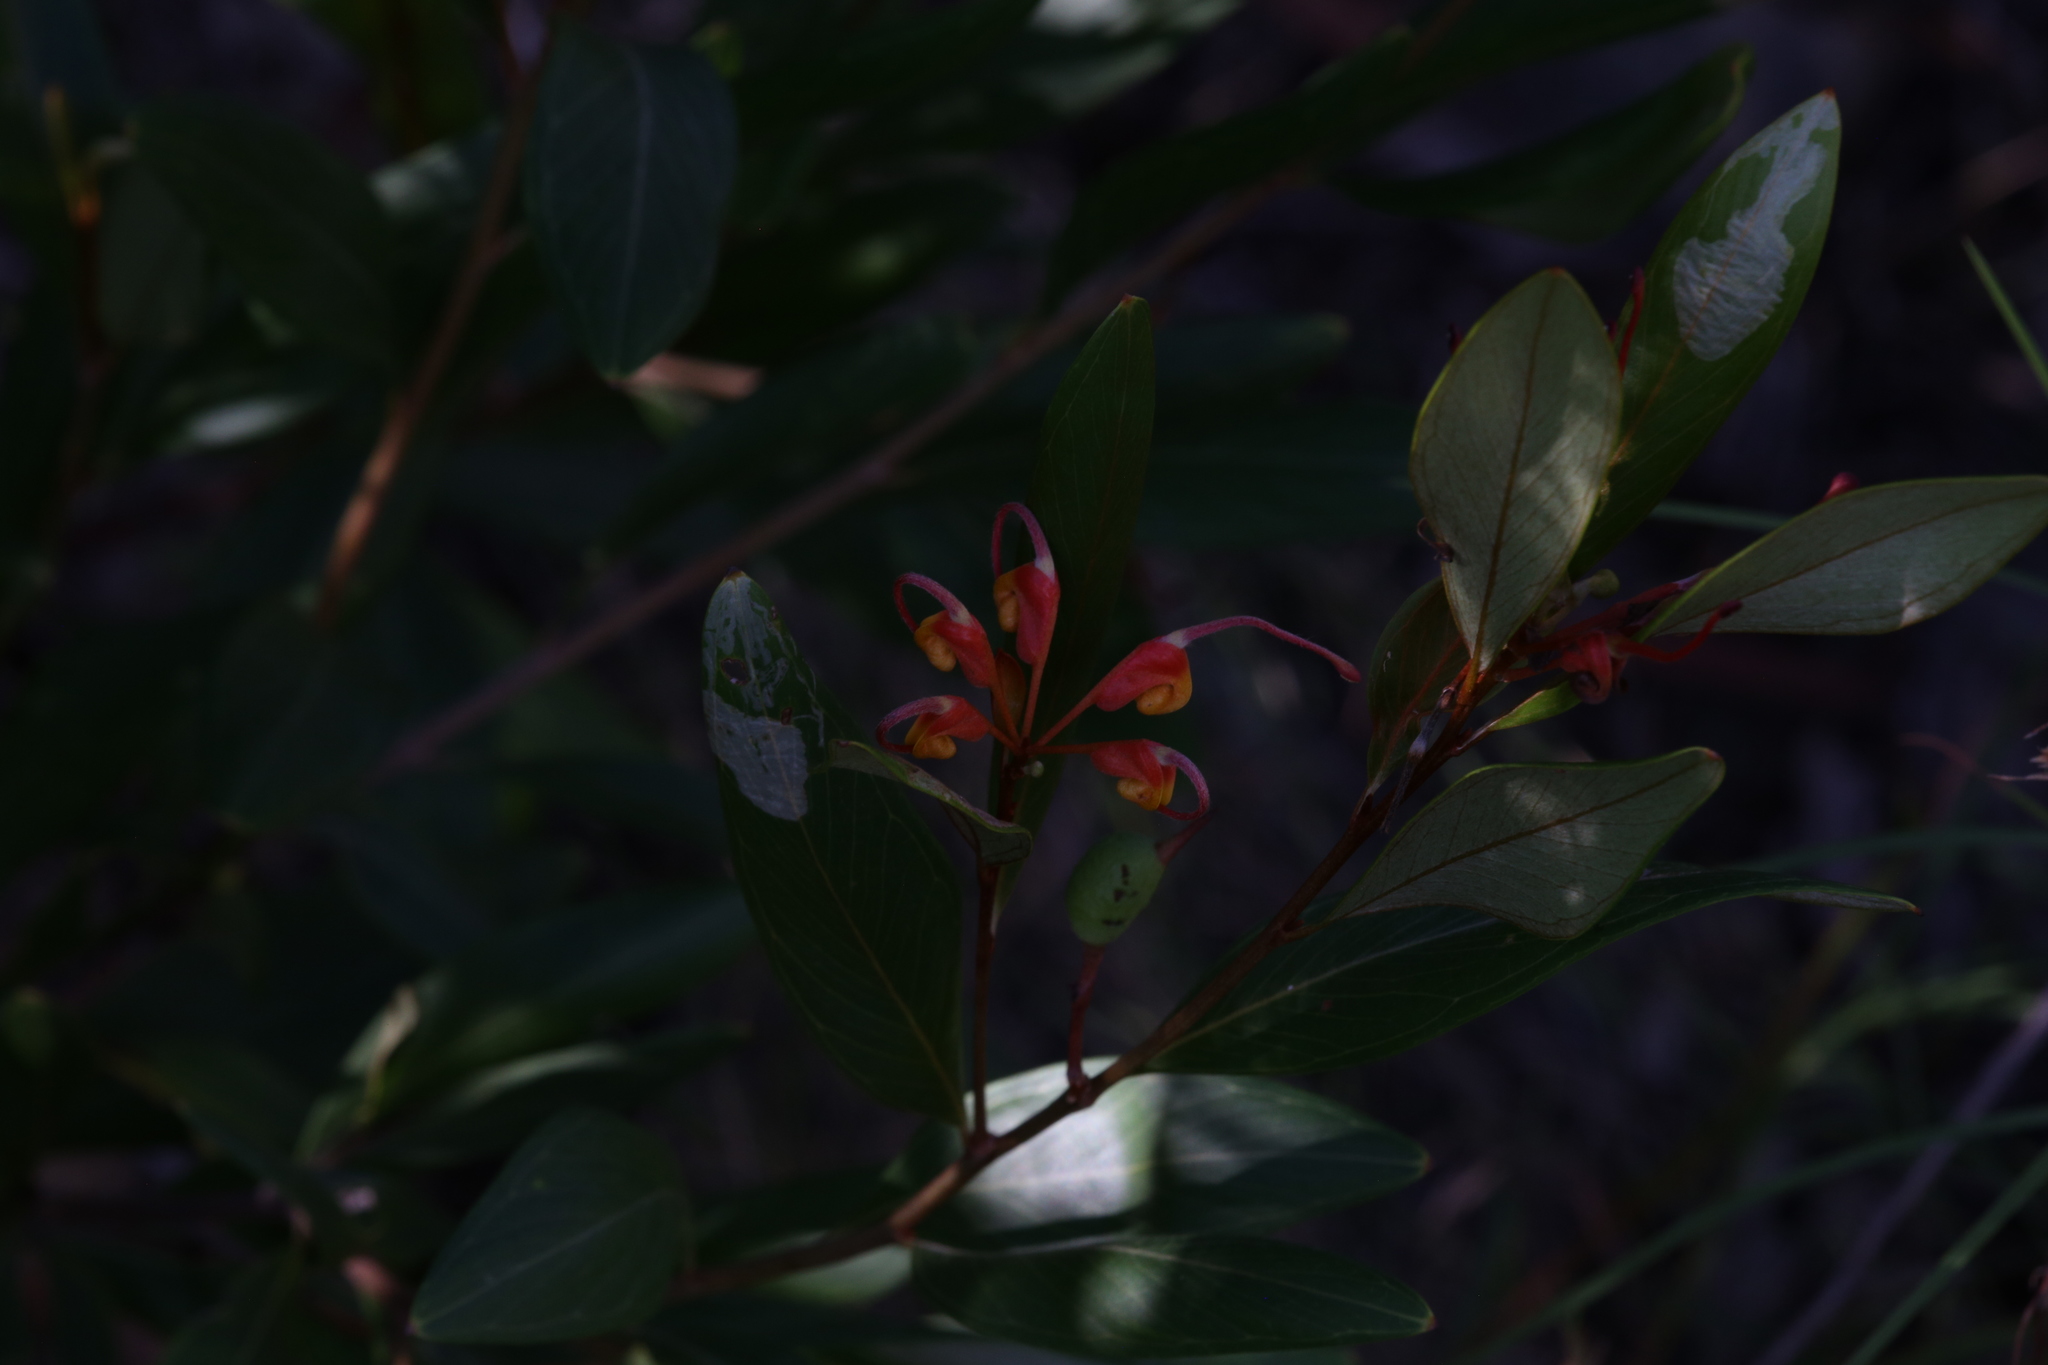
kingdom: Plantae
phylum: Tracheophyta
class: Magnoliopsida
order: Proteales
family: Proteaceae
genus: Grevillea
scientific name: Grevillea glossadenia
